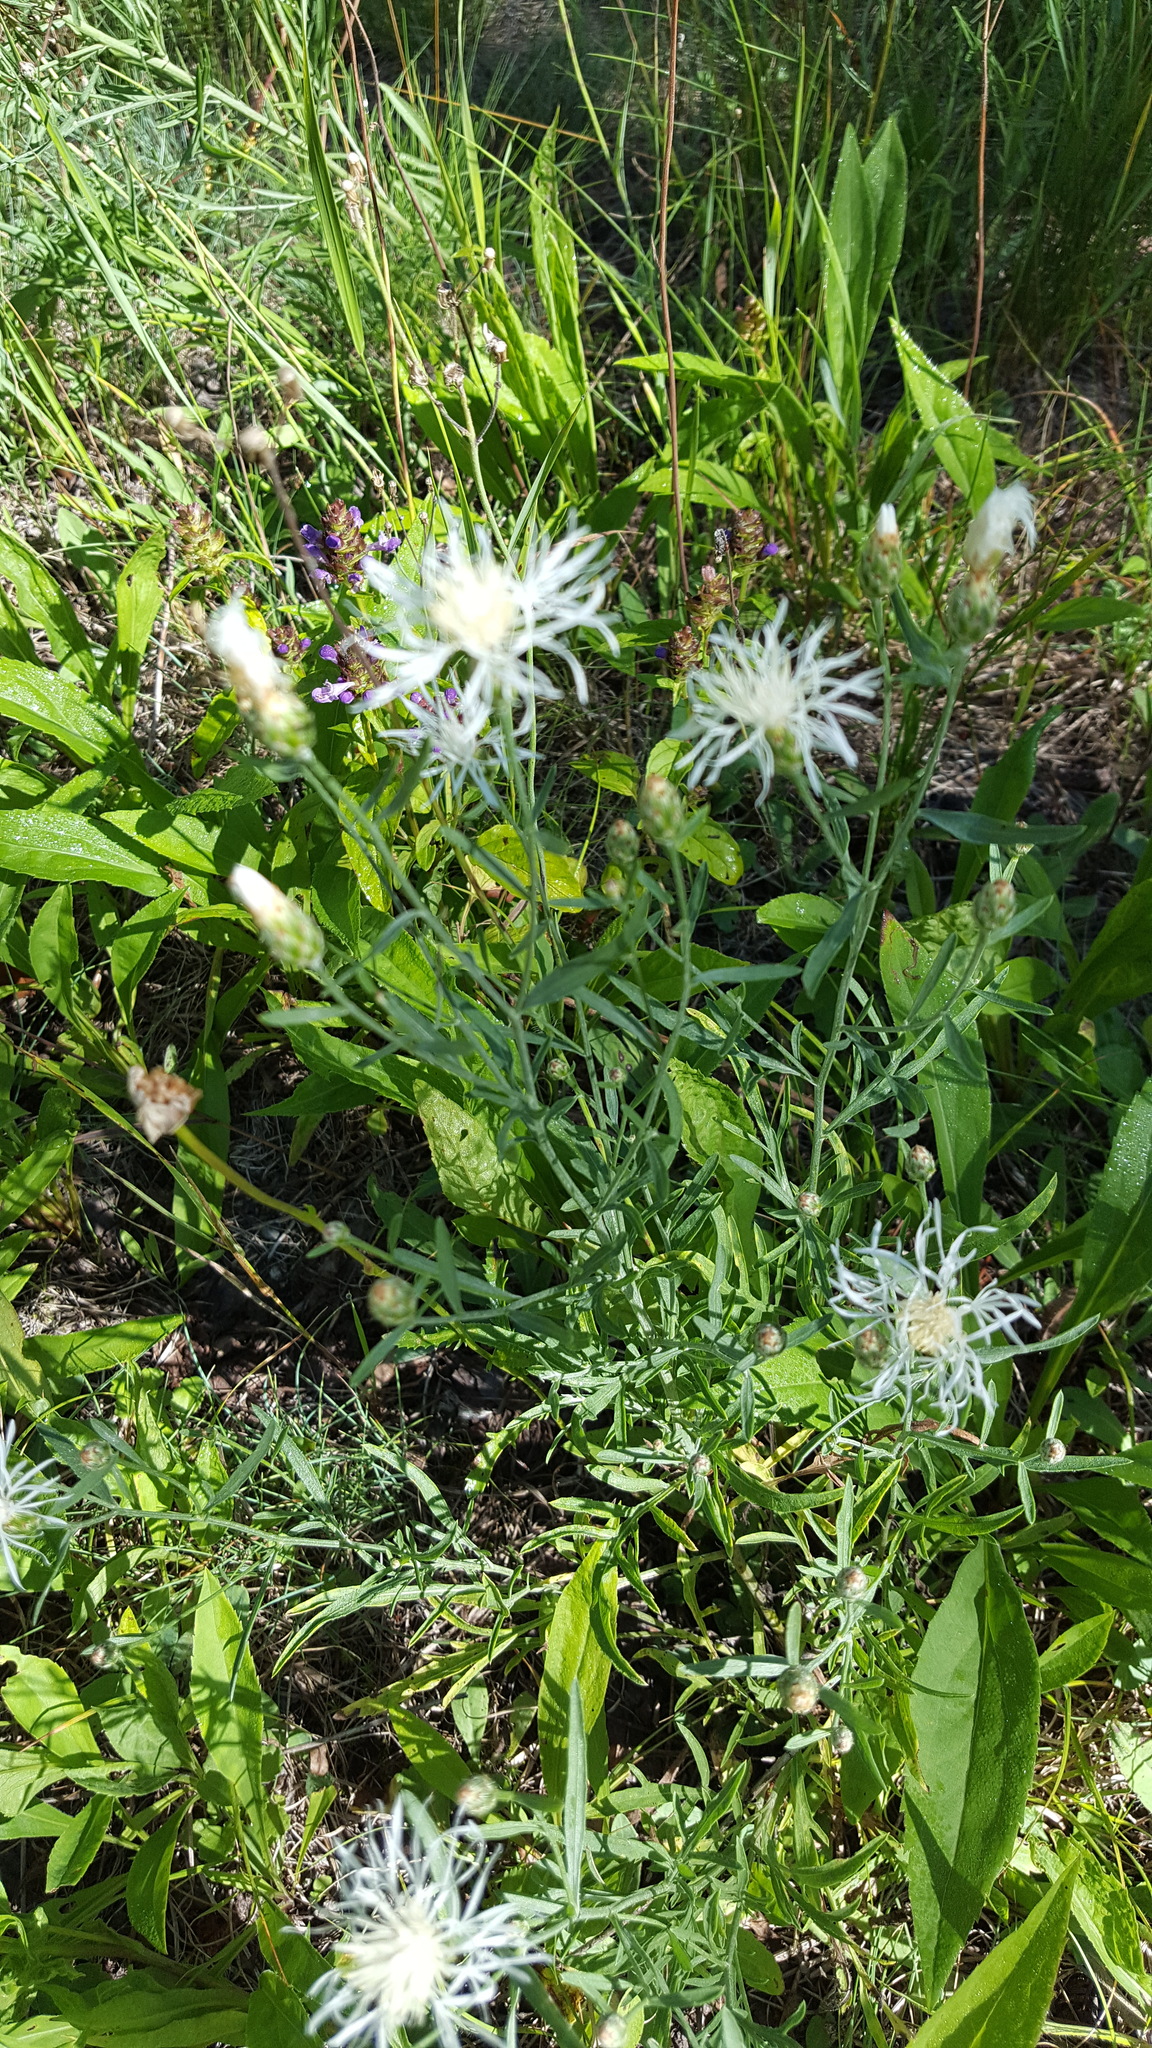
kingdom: Plantae
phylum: Tracheophyta
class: Magnoliopsida
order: Asterales
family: Asteraceae
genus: Centaurea
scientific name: Centaurea stoebe
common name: Spotted knapweed
